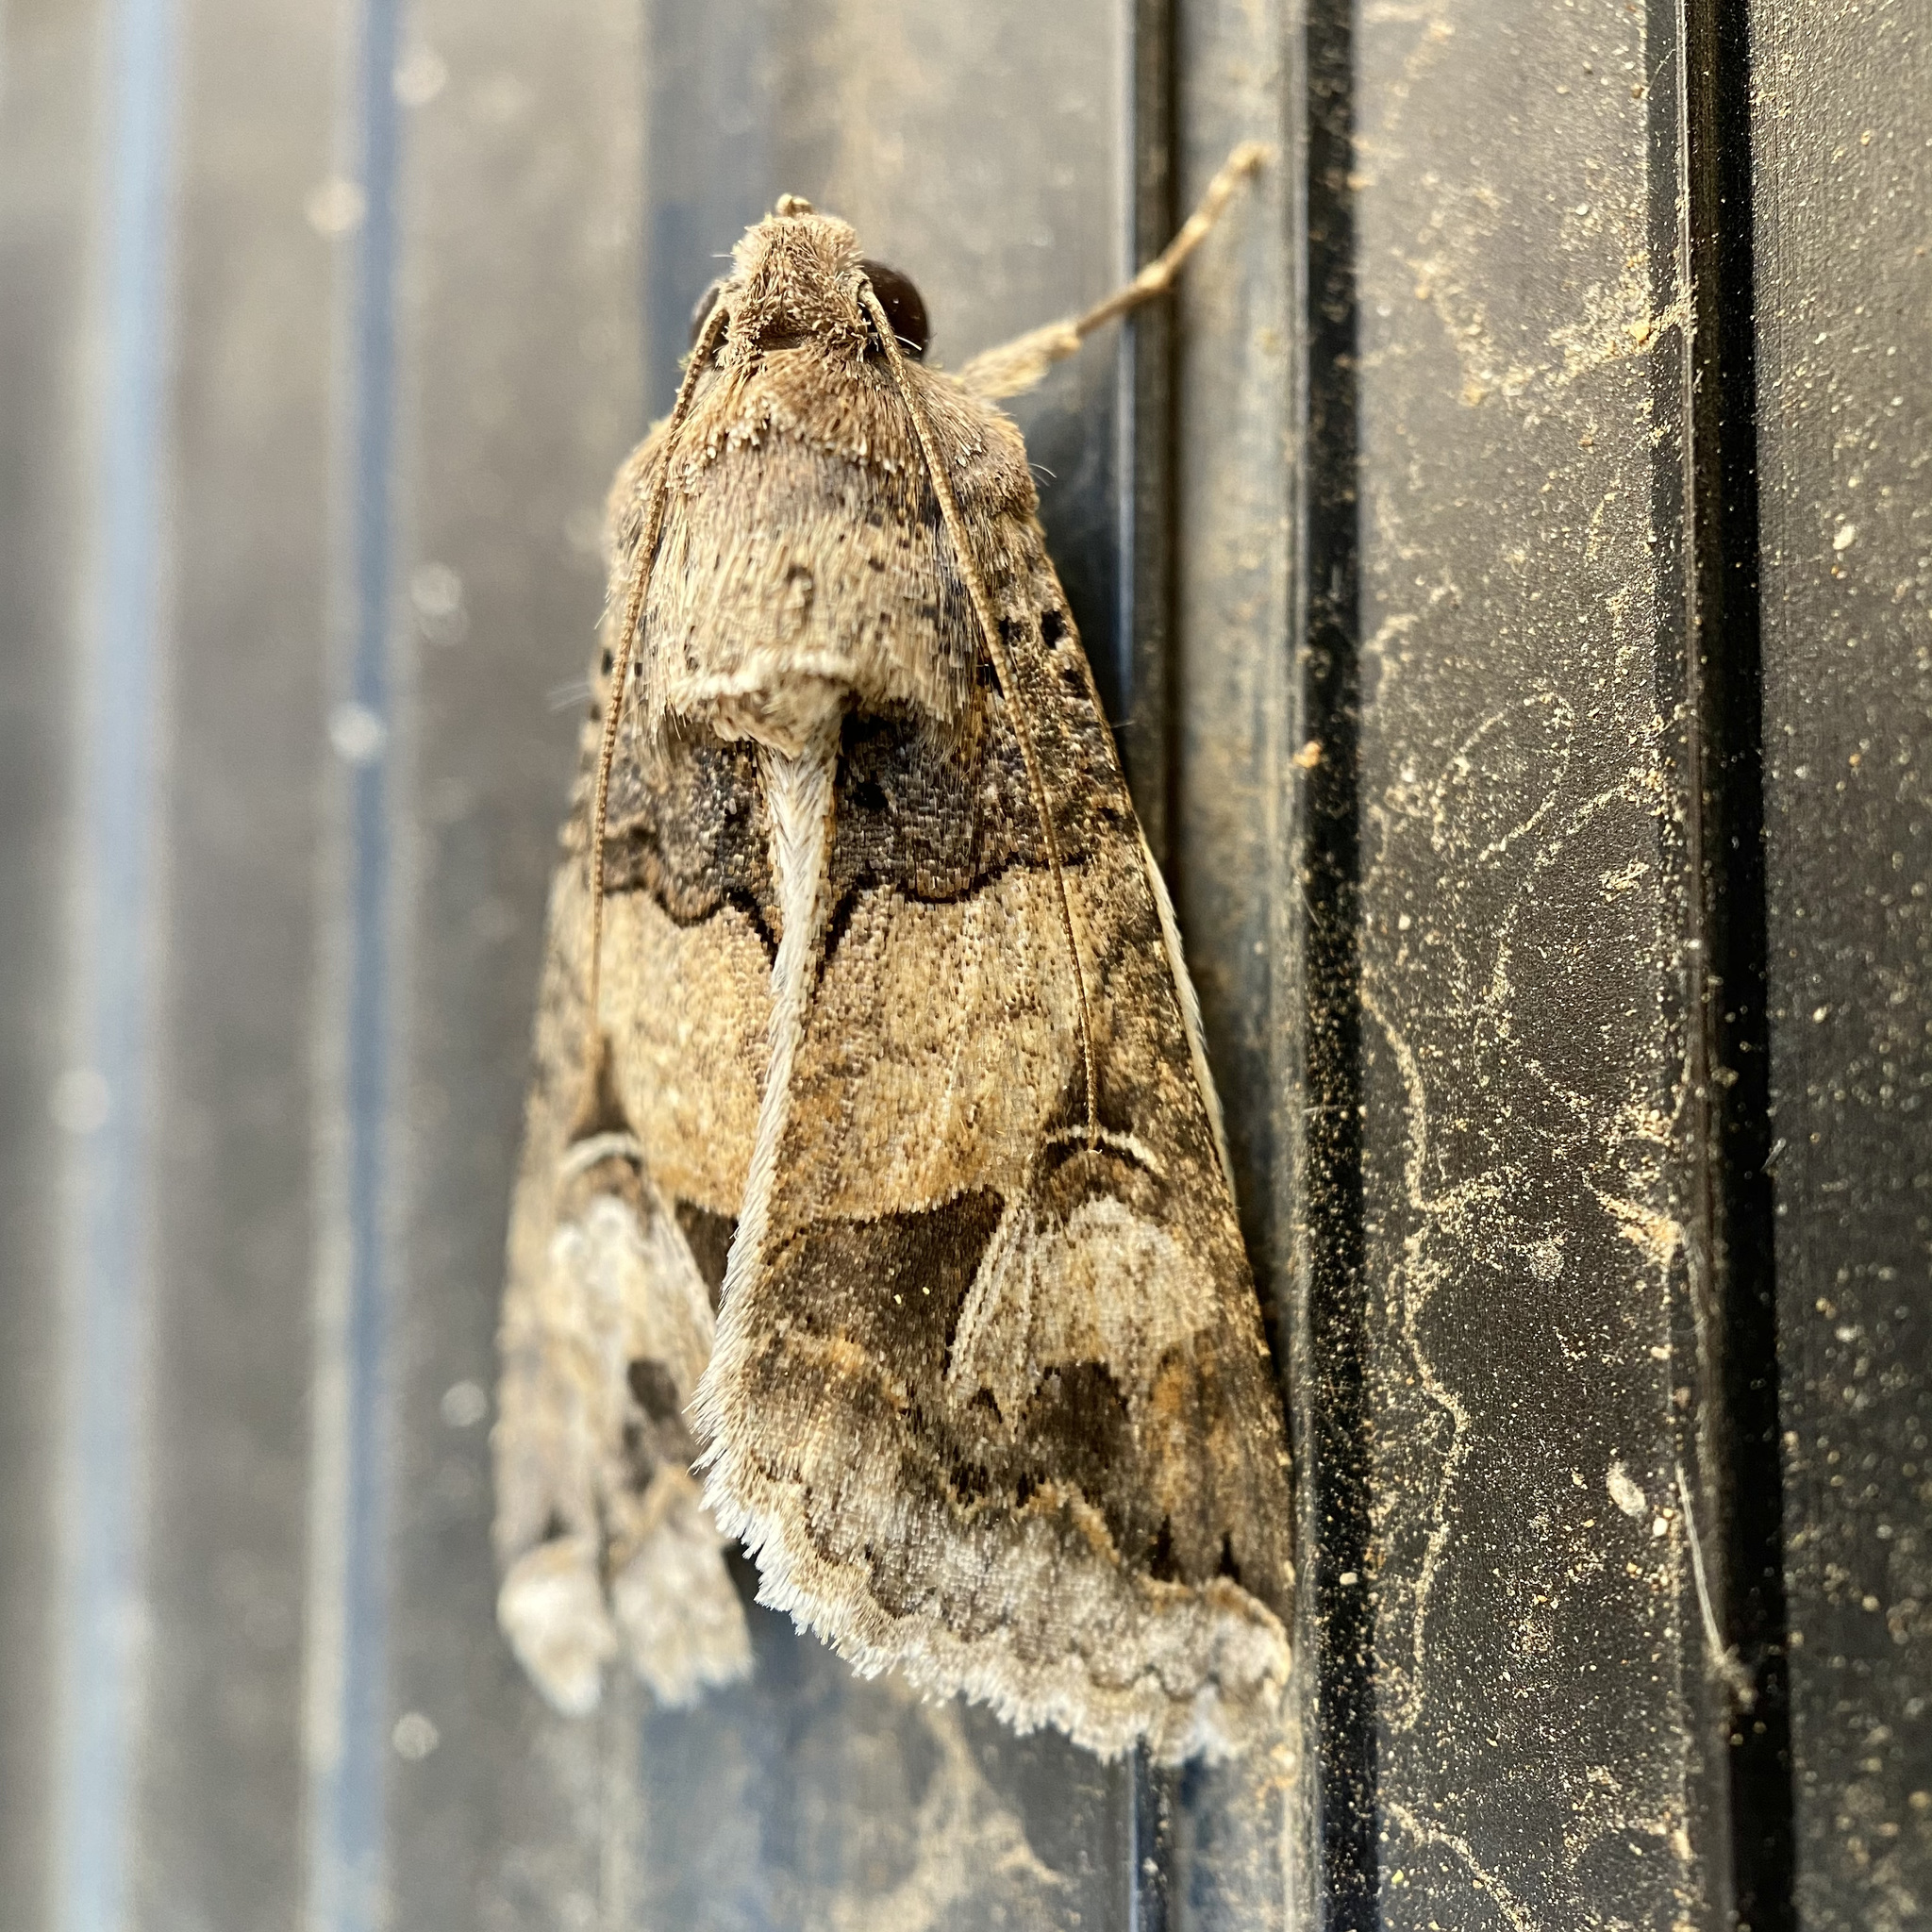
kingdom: Animalia
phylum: Arthropoda
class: Insecta
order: Lepidoptera
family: Erebidae
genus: Melipotis
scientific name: Melipotis novanda
